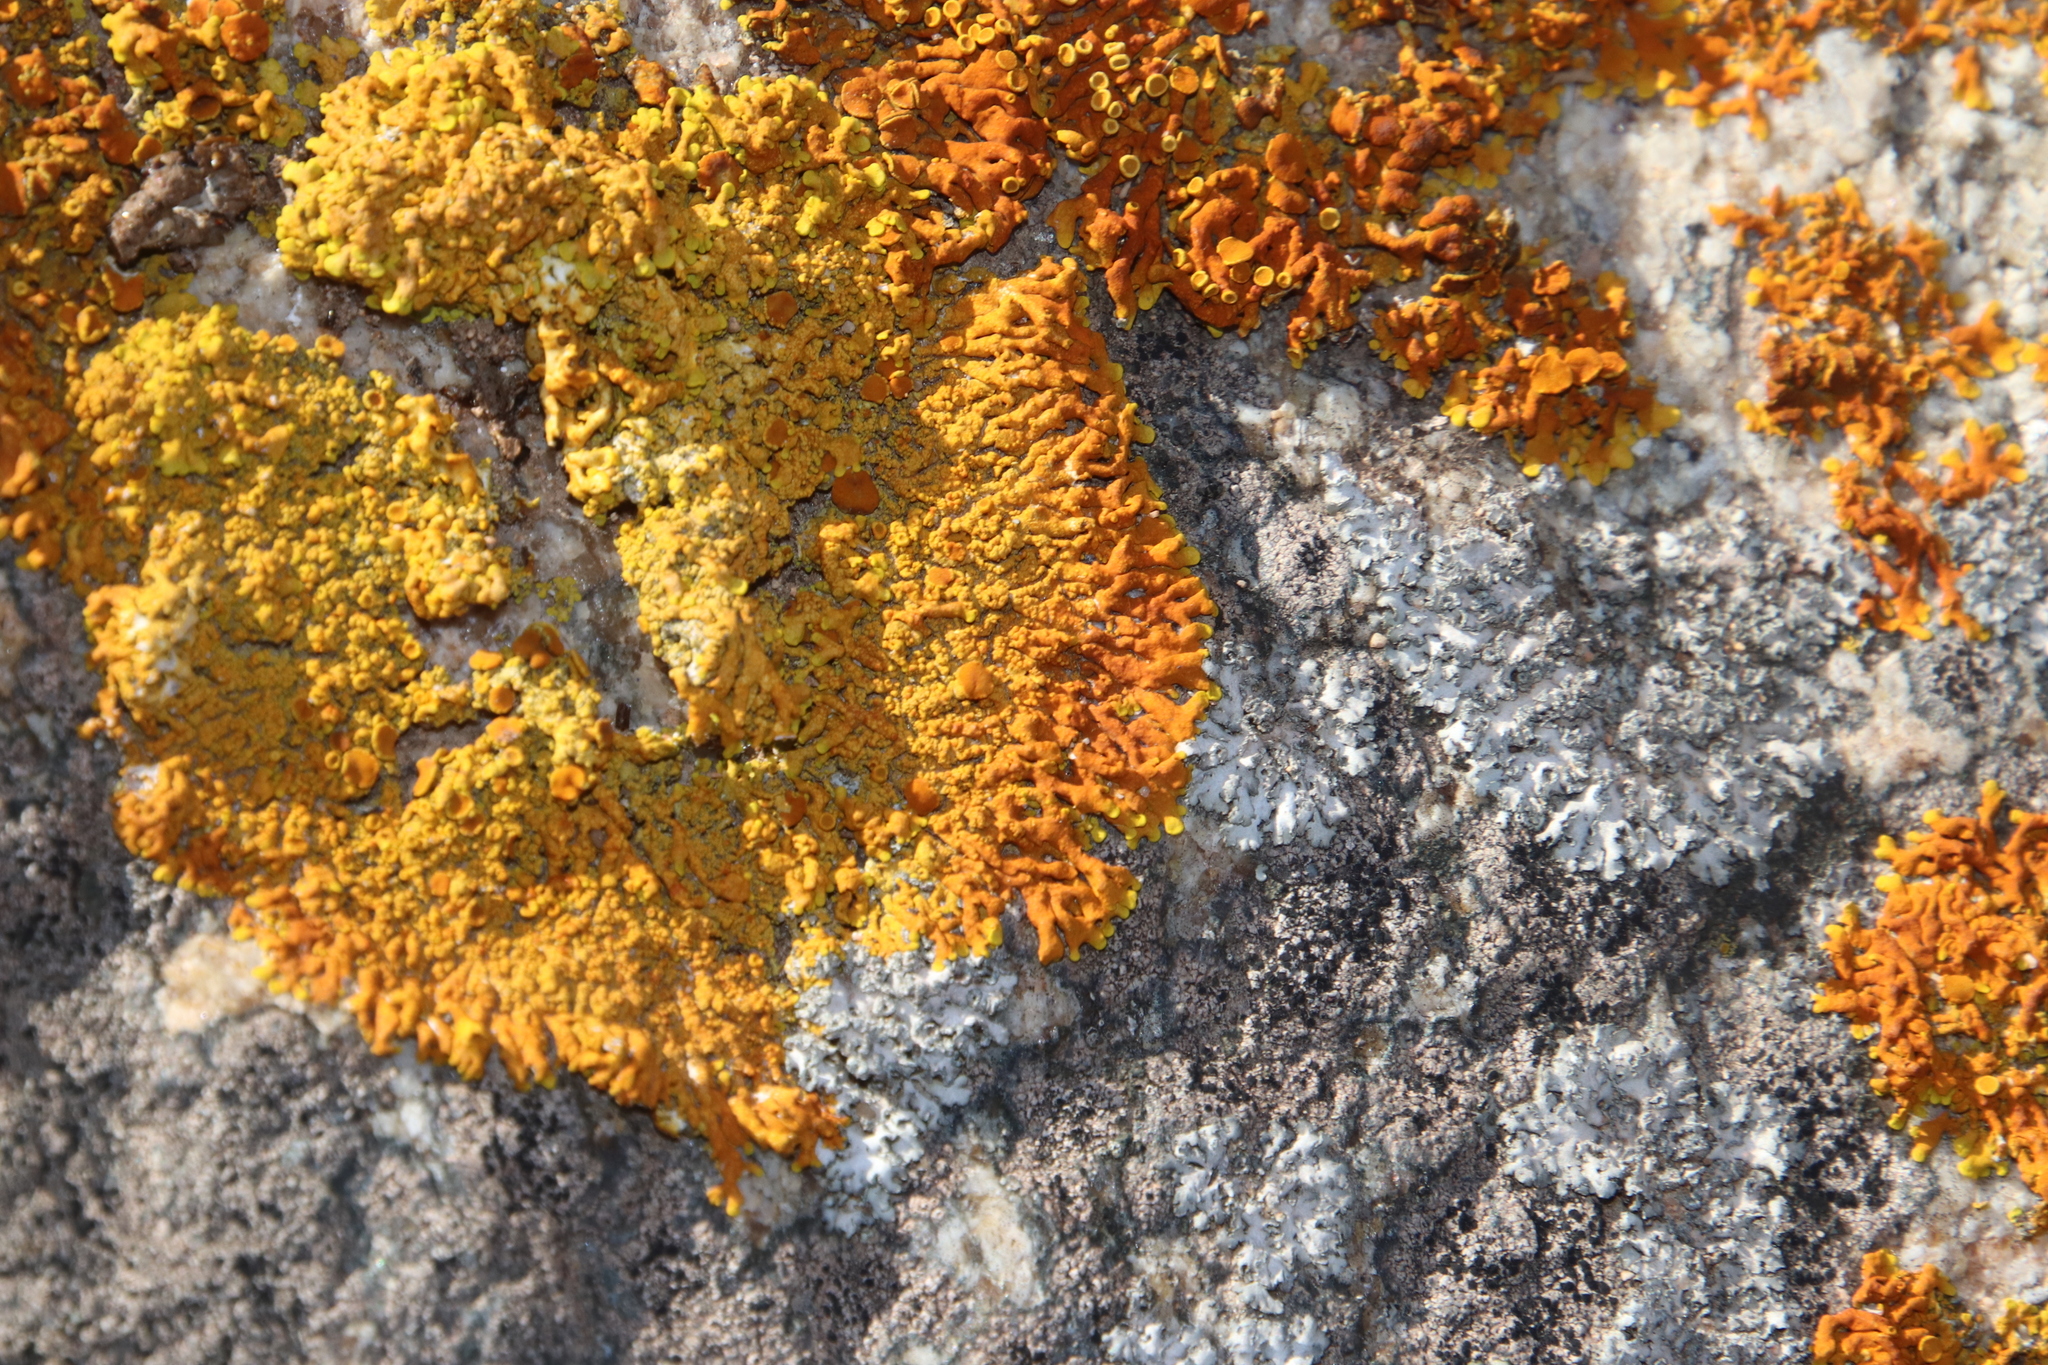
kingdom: Fungi
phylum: Ascomycota
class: Lecanoromycetes
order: Teloschistales
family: Teloschistaceae
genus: Dufourea
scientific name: Dufourea capensis
